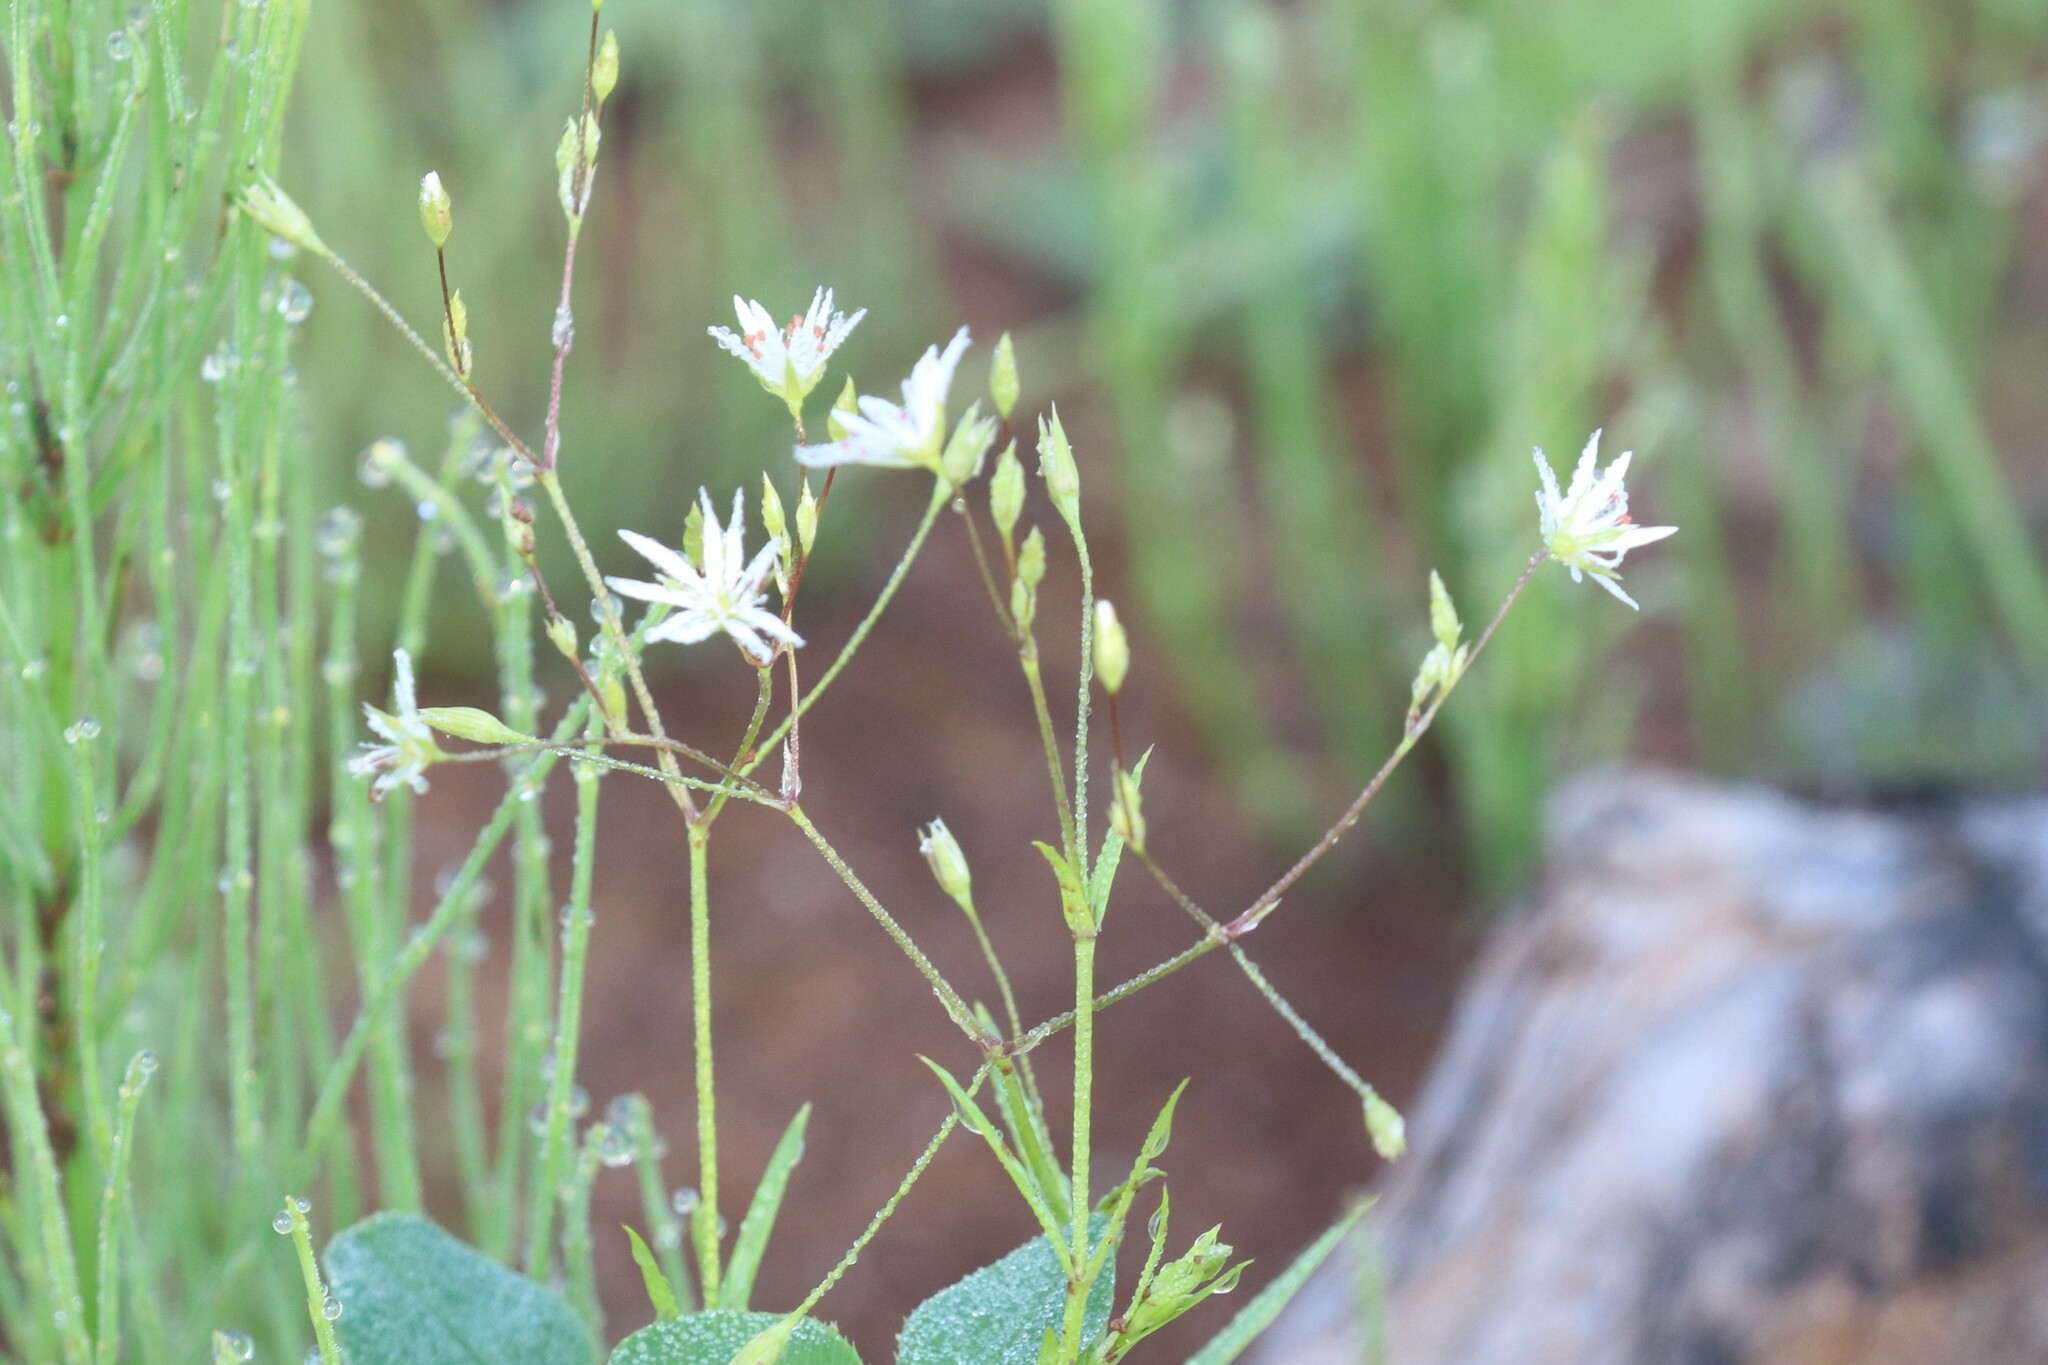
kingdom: Plantae
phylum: Tracheophyta
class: Magnoliopsida
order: Caryophyllales
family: Caryophyllaceae
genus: Stellaria
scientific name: Stellaria graminea
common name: Grass-like starwort
